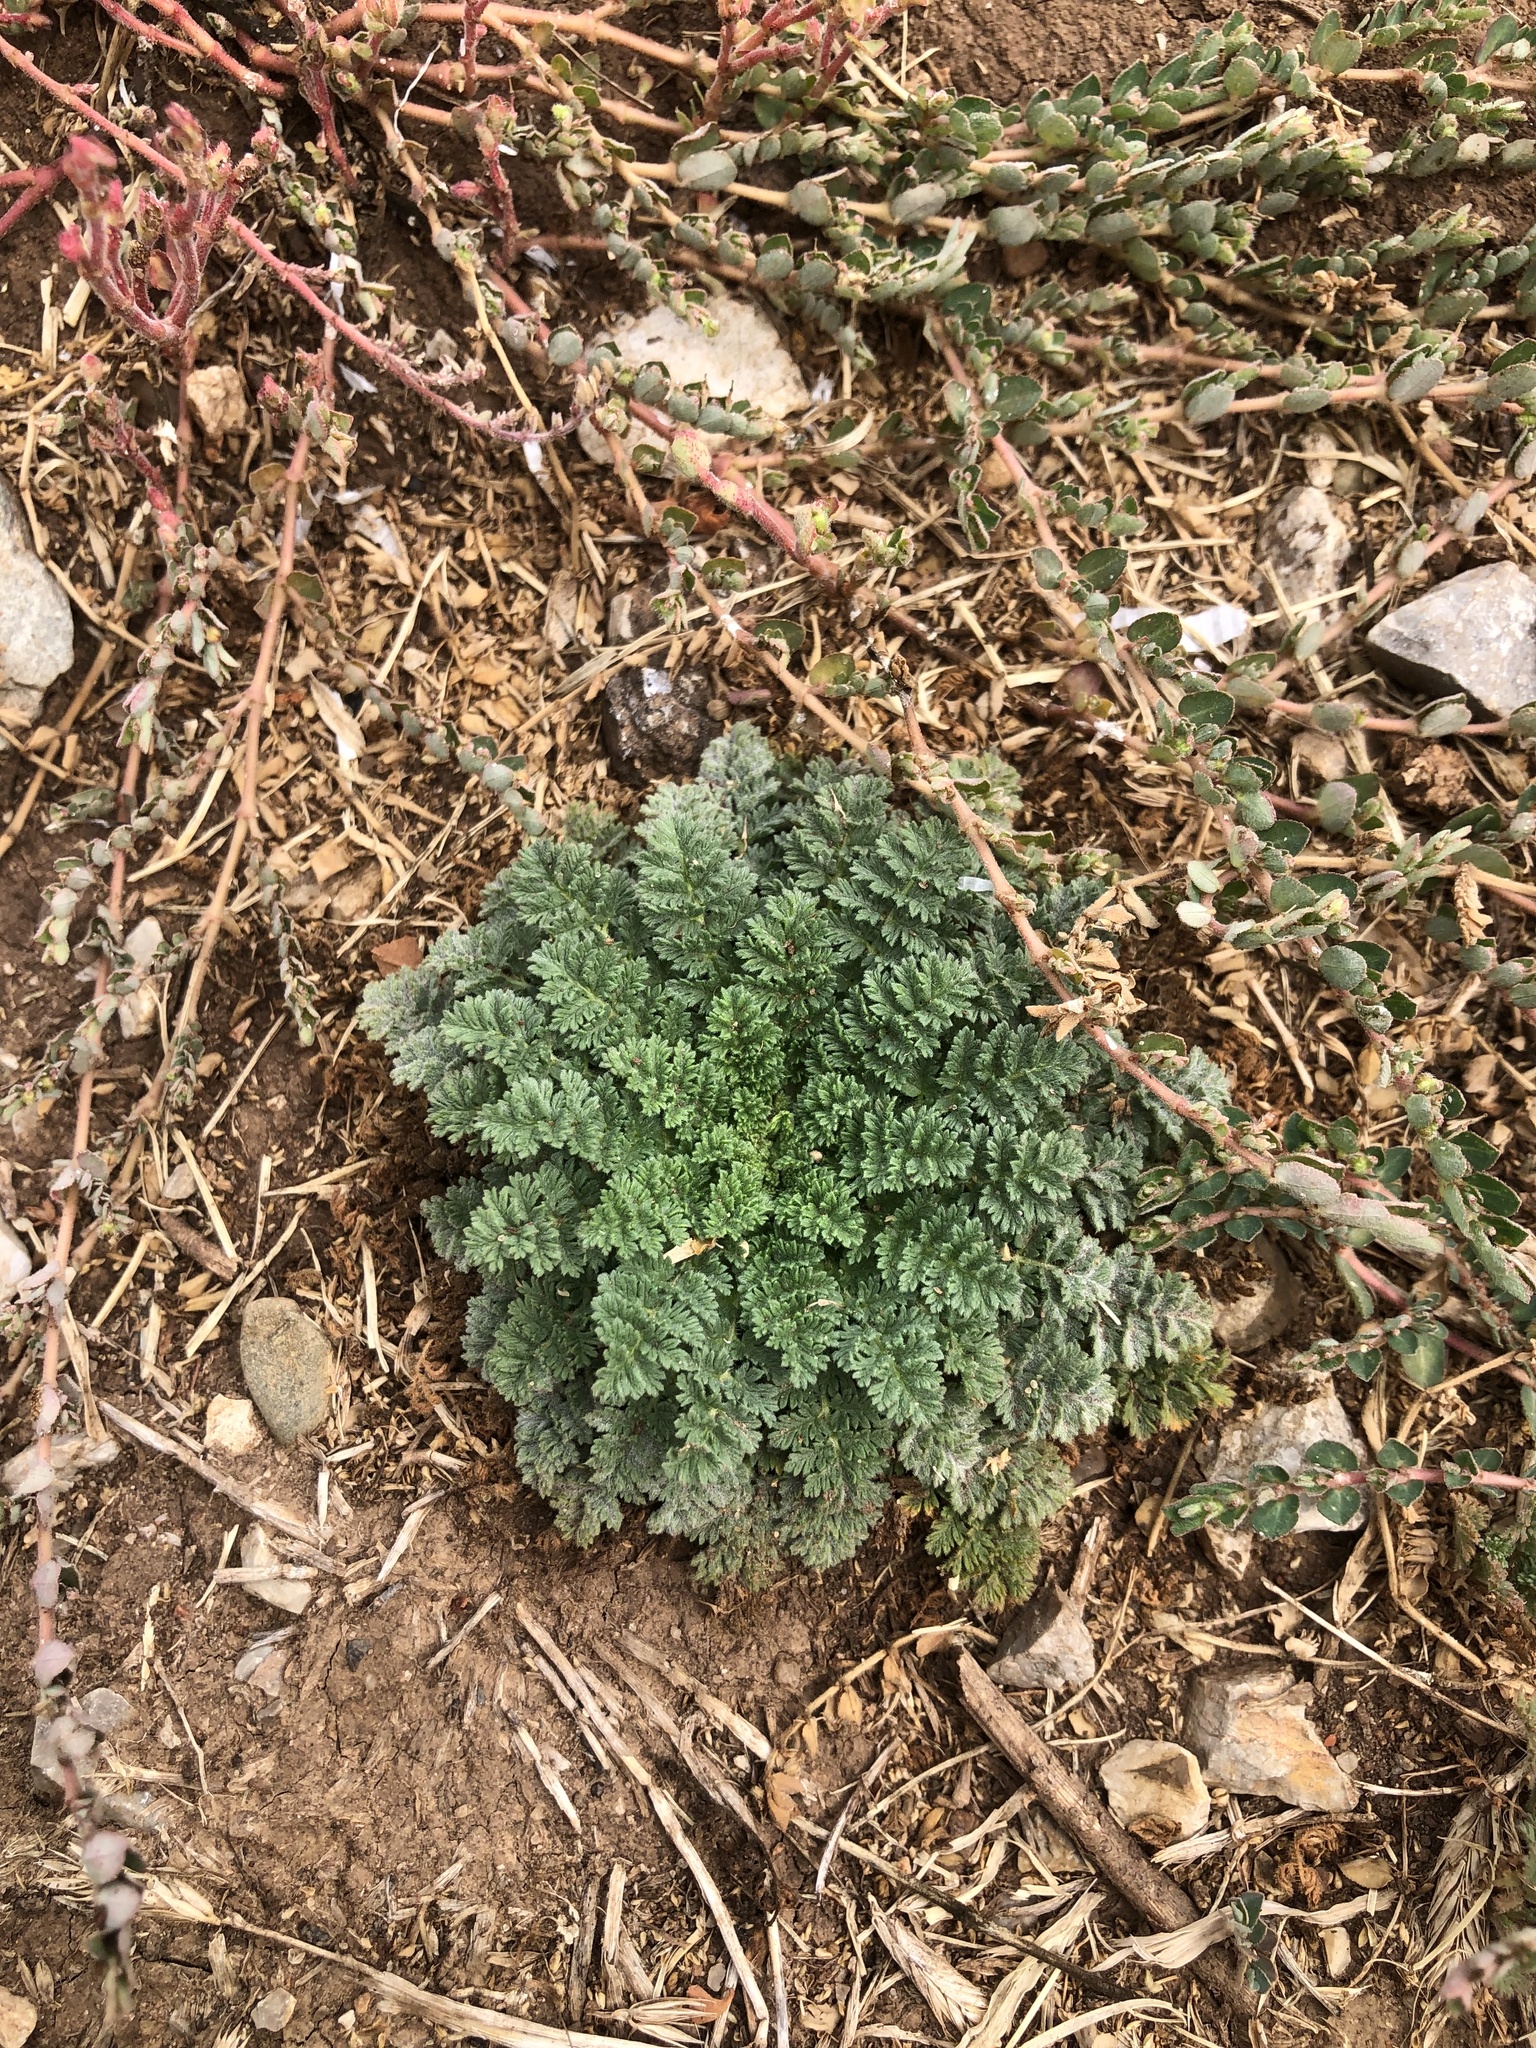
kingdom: Plantae
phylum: Tracheophyta
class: Magnoliopsida
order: Geraniales
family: Geraniaceae
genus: Erodium
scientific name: Erodium cicutarium
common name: Common stork's-bill
